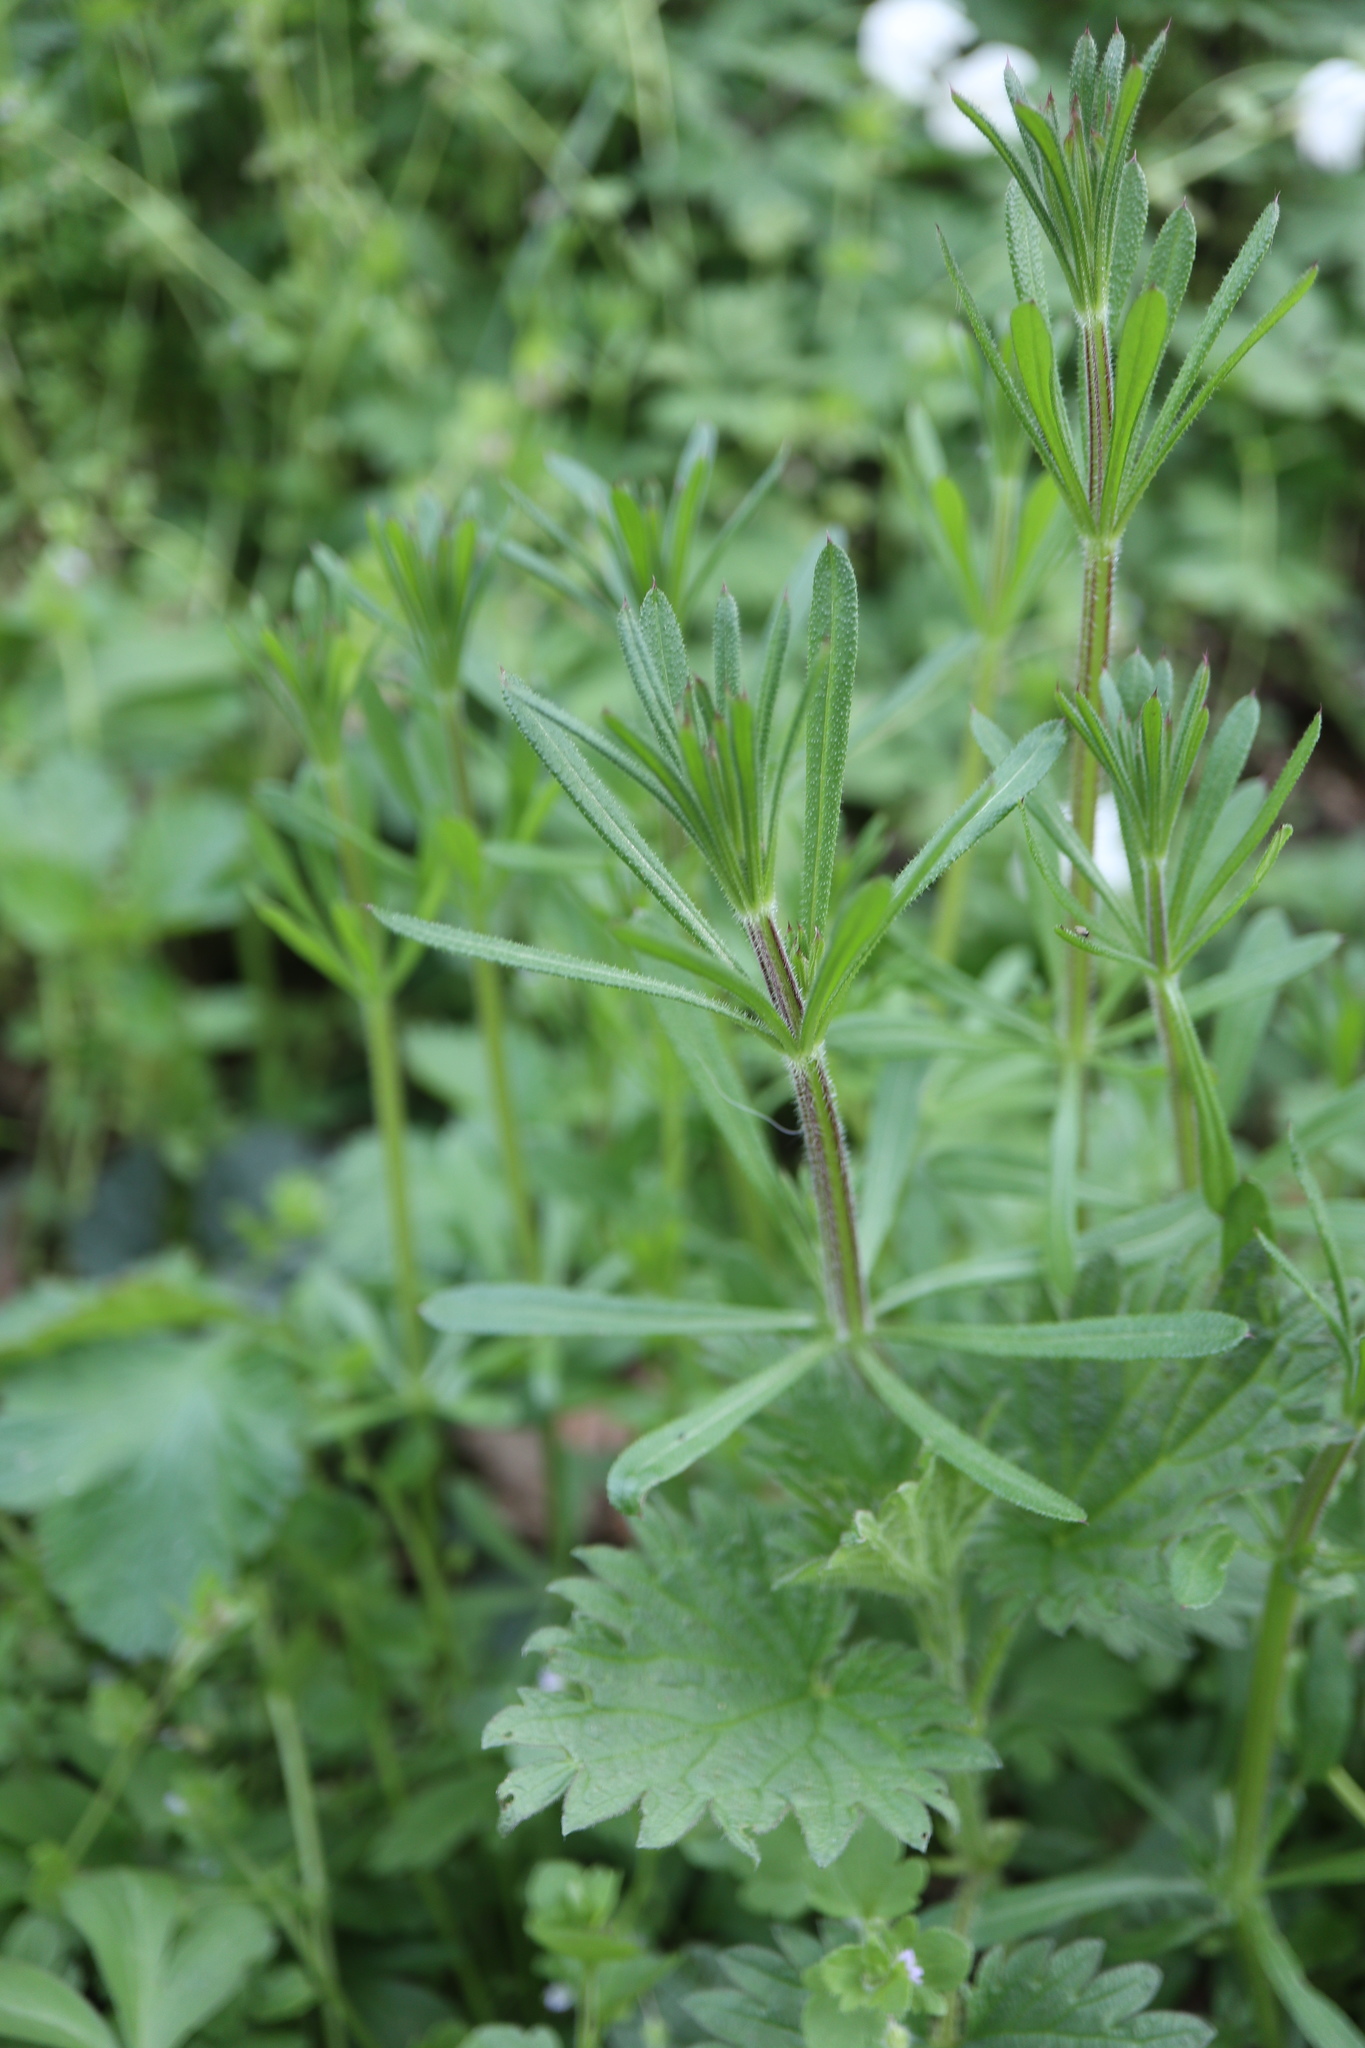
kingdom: Plantae
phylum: Tracheophyta
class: Magnoliopsida
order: Gentianales
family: Rubiaceae
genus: Galium
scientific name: Galium aparine
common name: Cleavers
